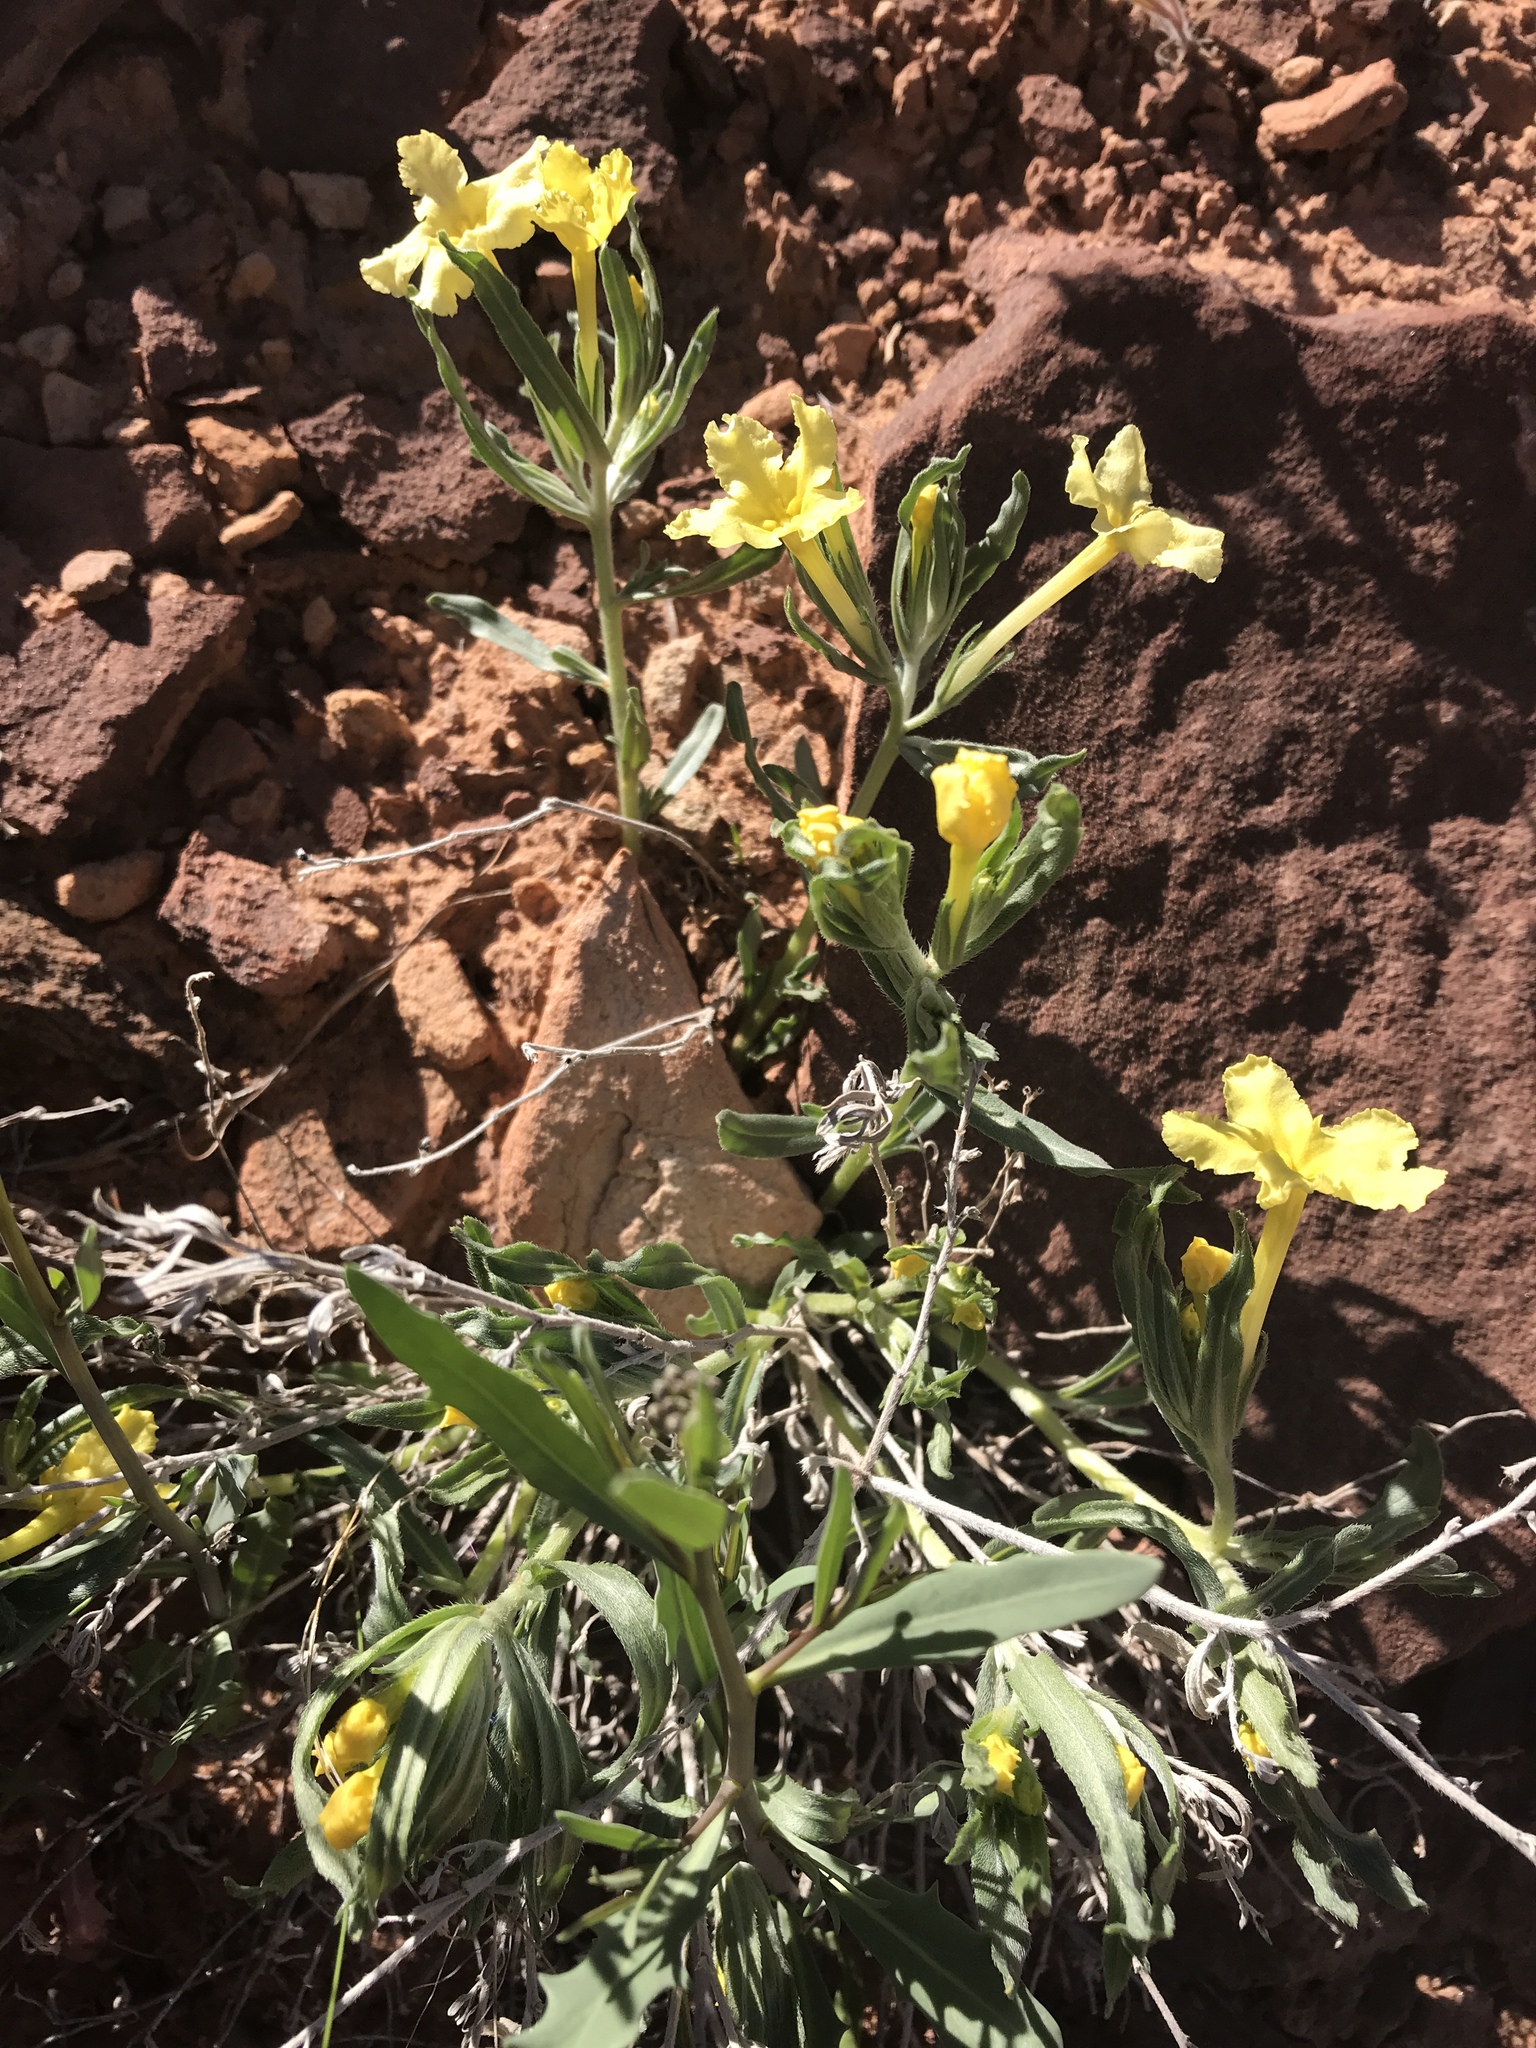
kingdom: Plantae
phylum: Tracheophyta
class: Magnoliopsida
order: Boraginales
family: Boraginaceae
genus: Lithospermum
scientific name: Lithospermum incisum
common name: Fringed gromwell
